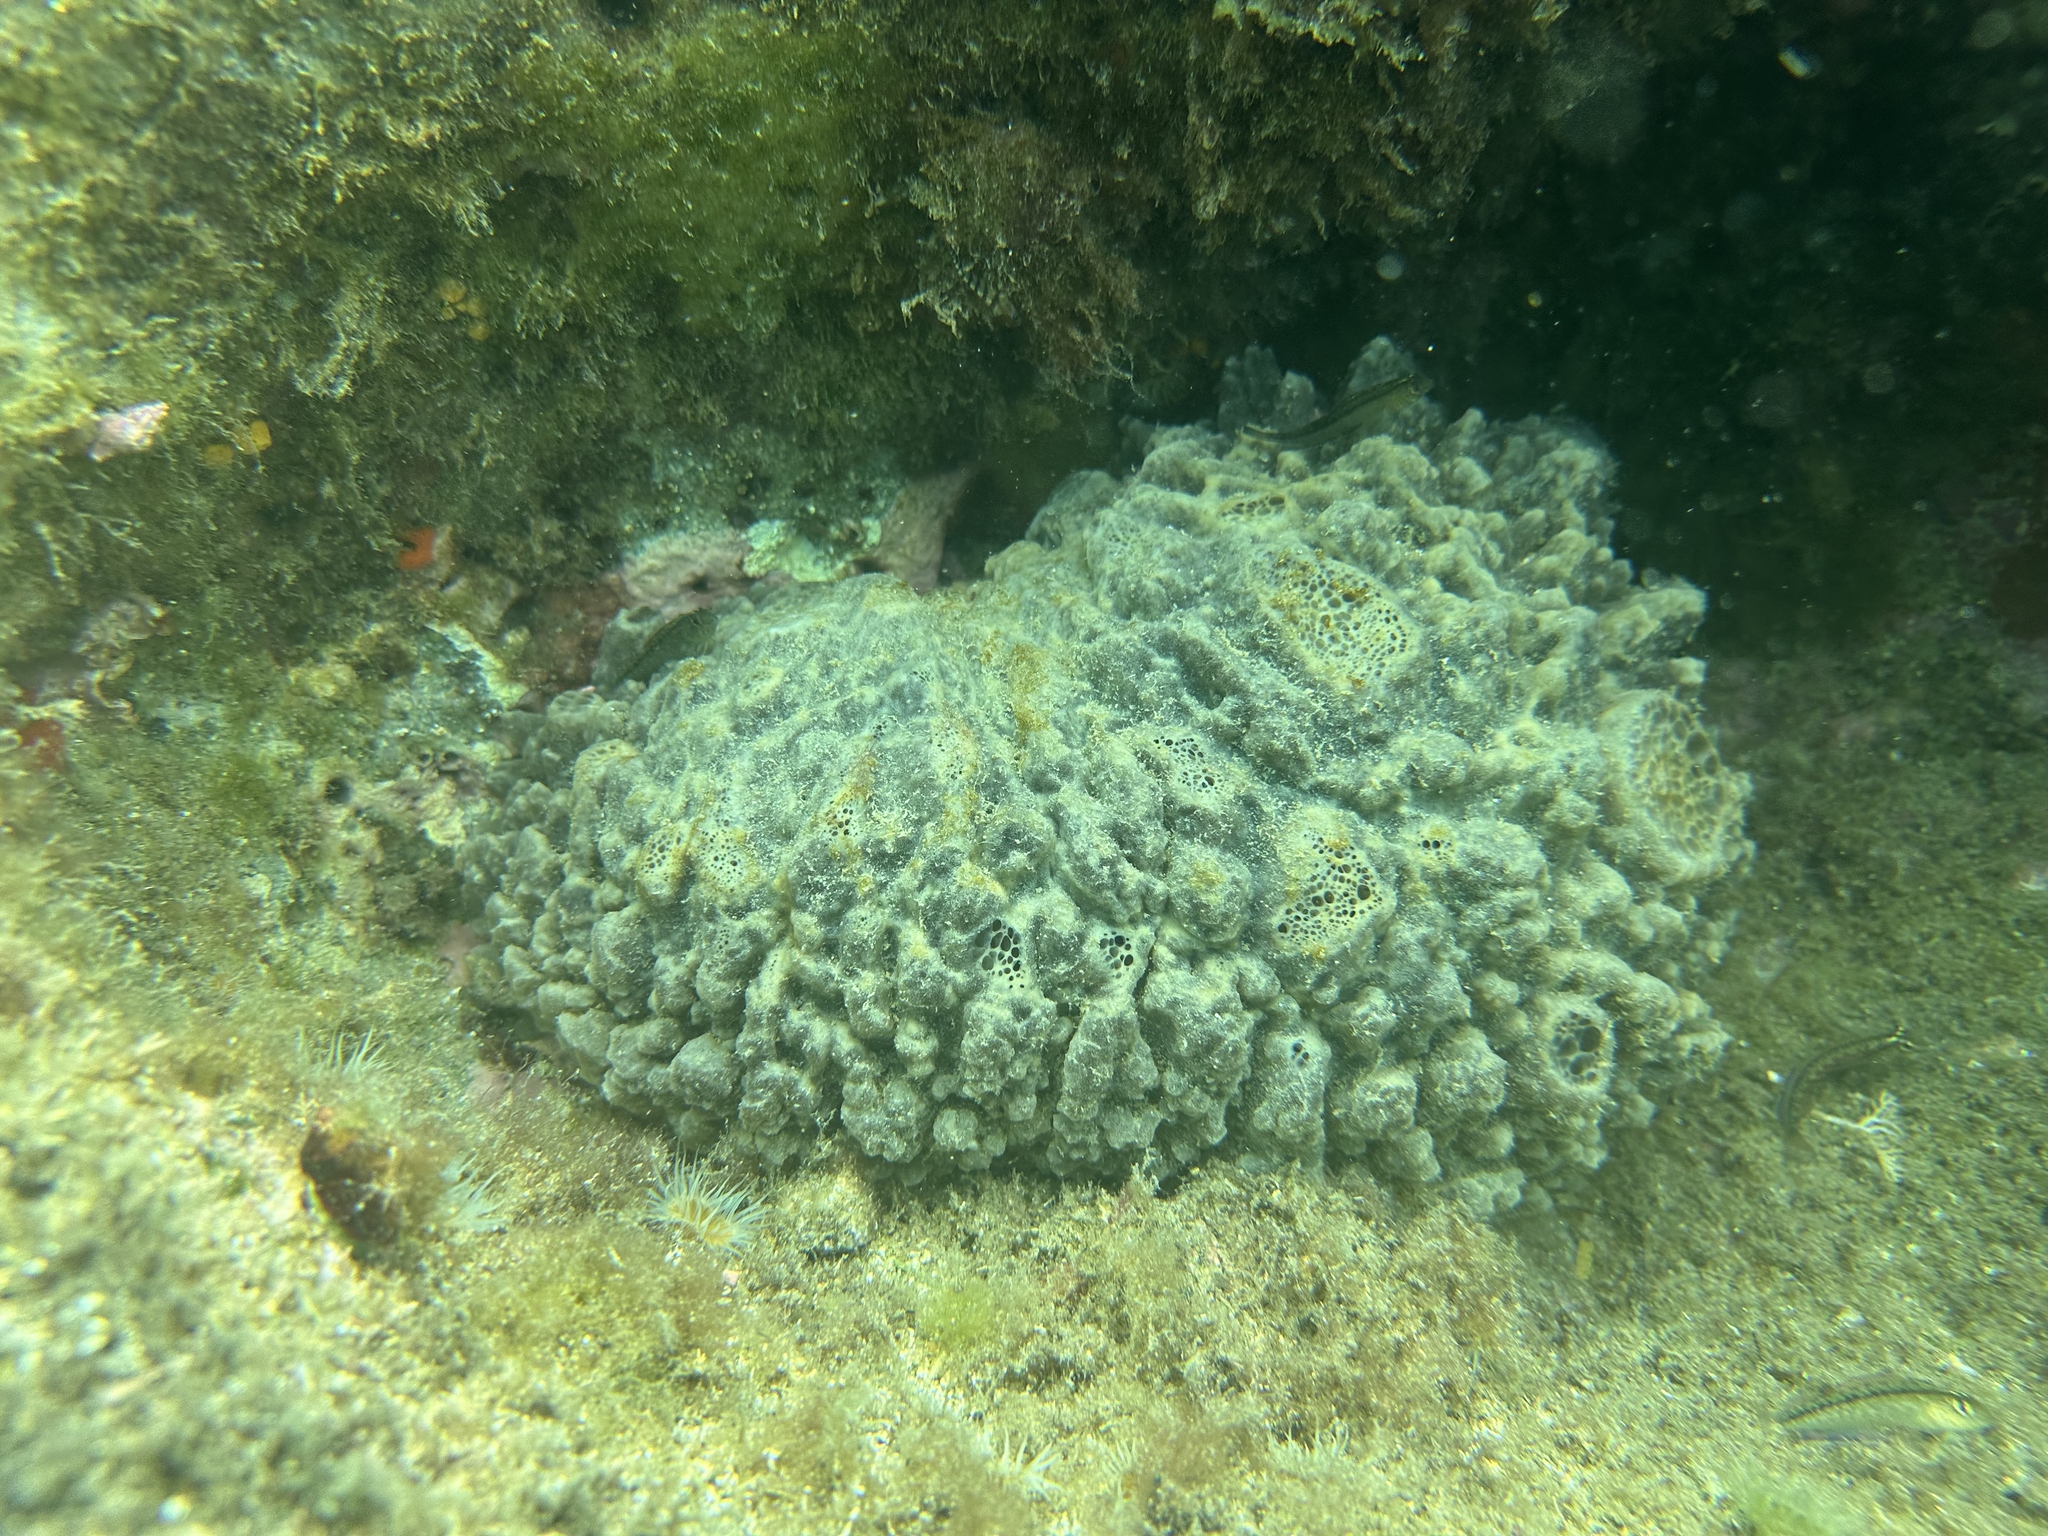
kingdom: Animalia
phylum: Porifera
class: Demospongiae
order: Polymastiida
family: Polymastiidae
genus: Polymastia
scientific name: Polymastia massalis
